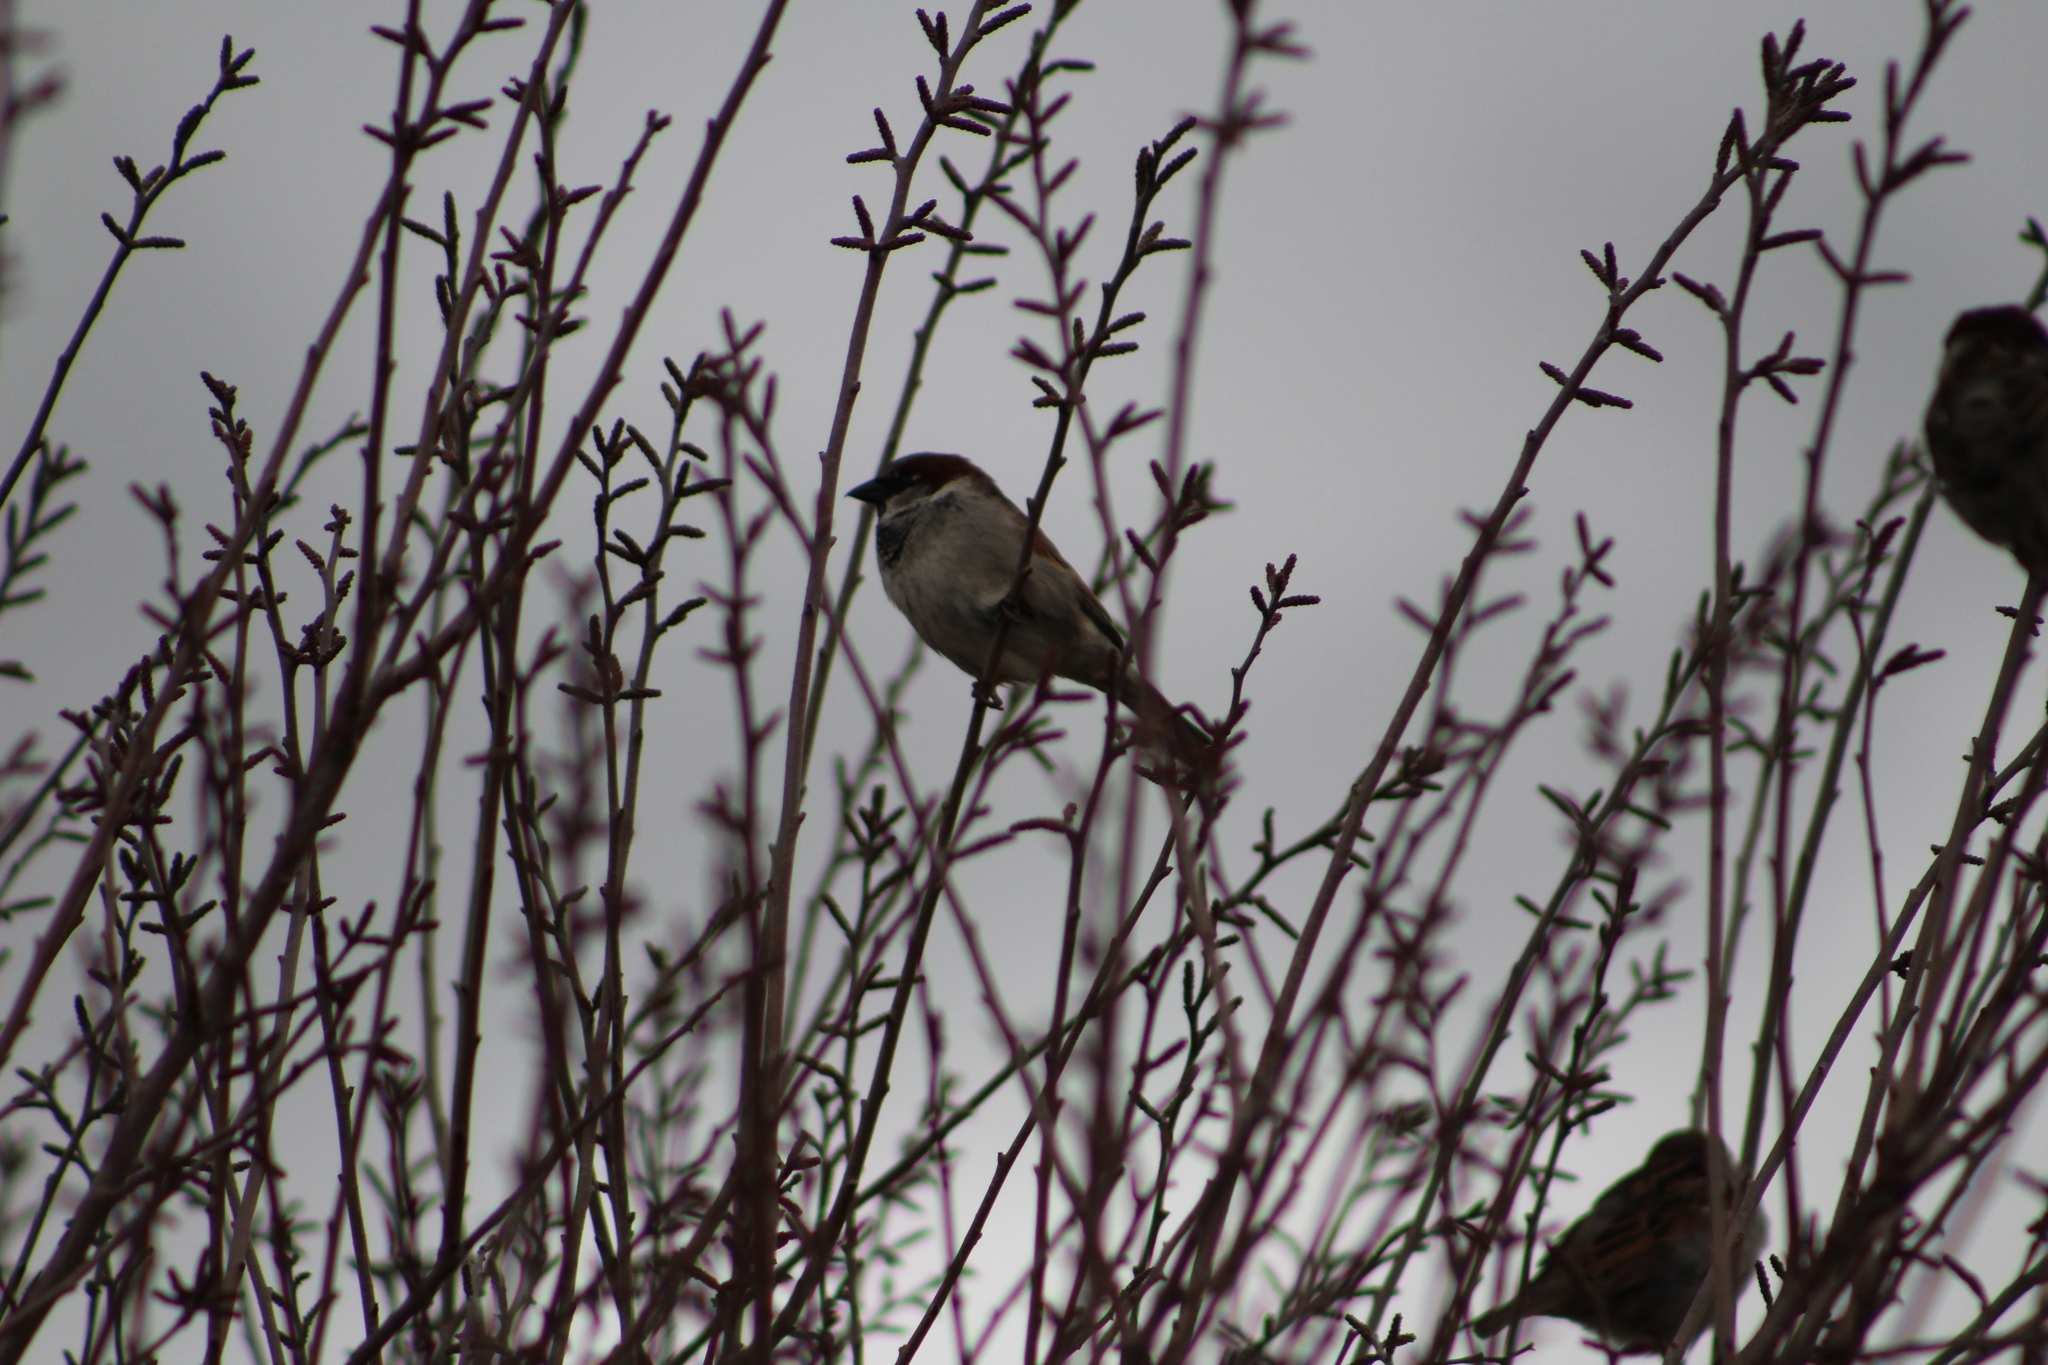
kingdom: Animalia
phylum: Chordata
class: Aves
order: Passeriformes
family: Passeridae
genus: Passer
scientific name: Passer domesticus
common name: House sparrow
